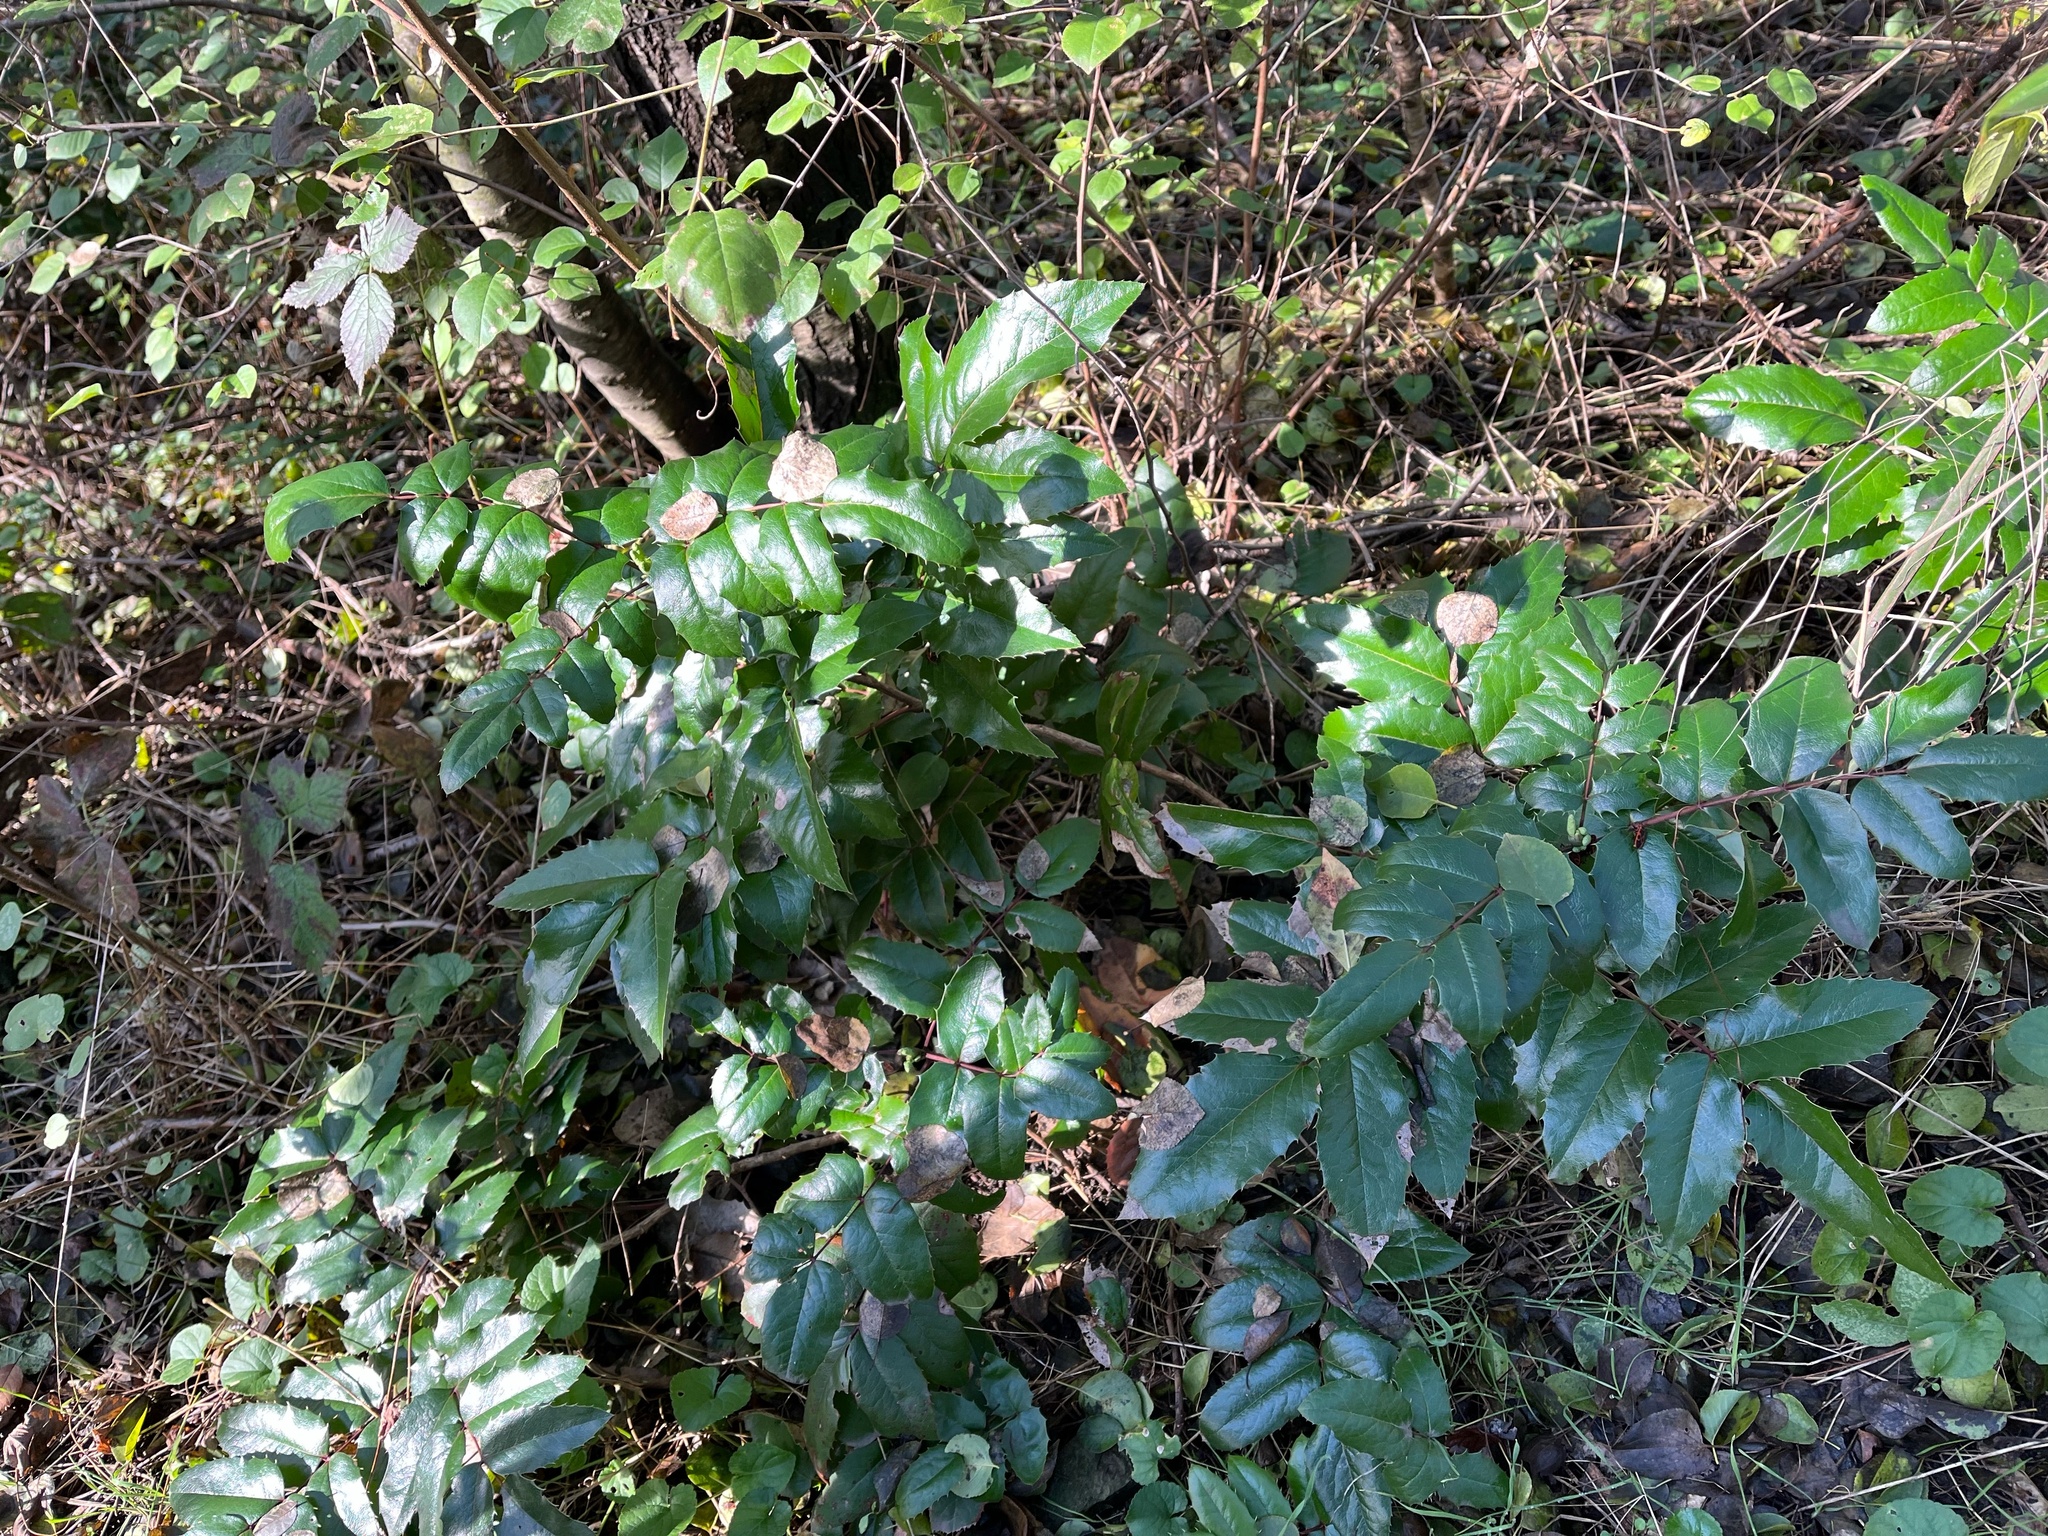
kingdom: Plantae
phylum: Tracheophyta
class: Magnoliopsida
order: Ranunculales
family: Berberidaceae
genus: Mahonia
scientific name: Mahonia aquifolium
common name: Oregon-grape
